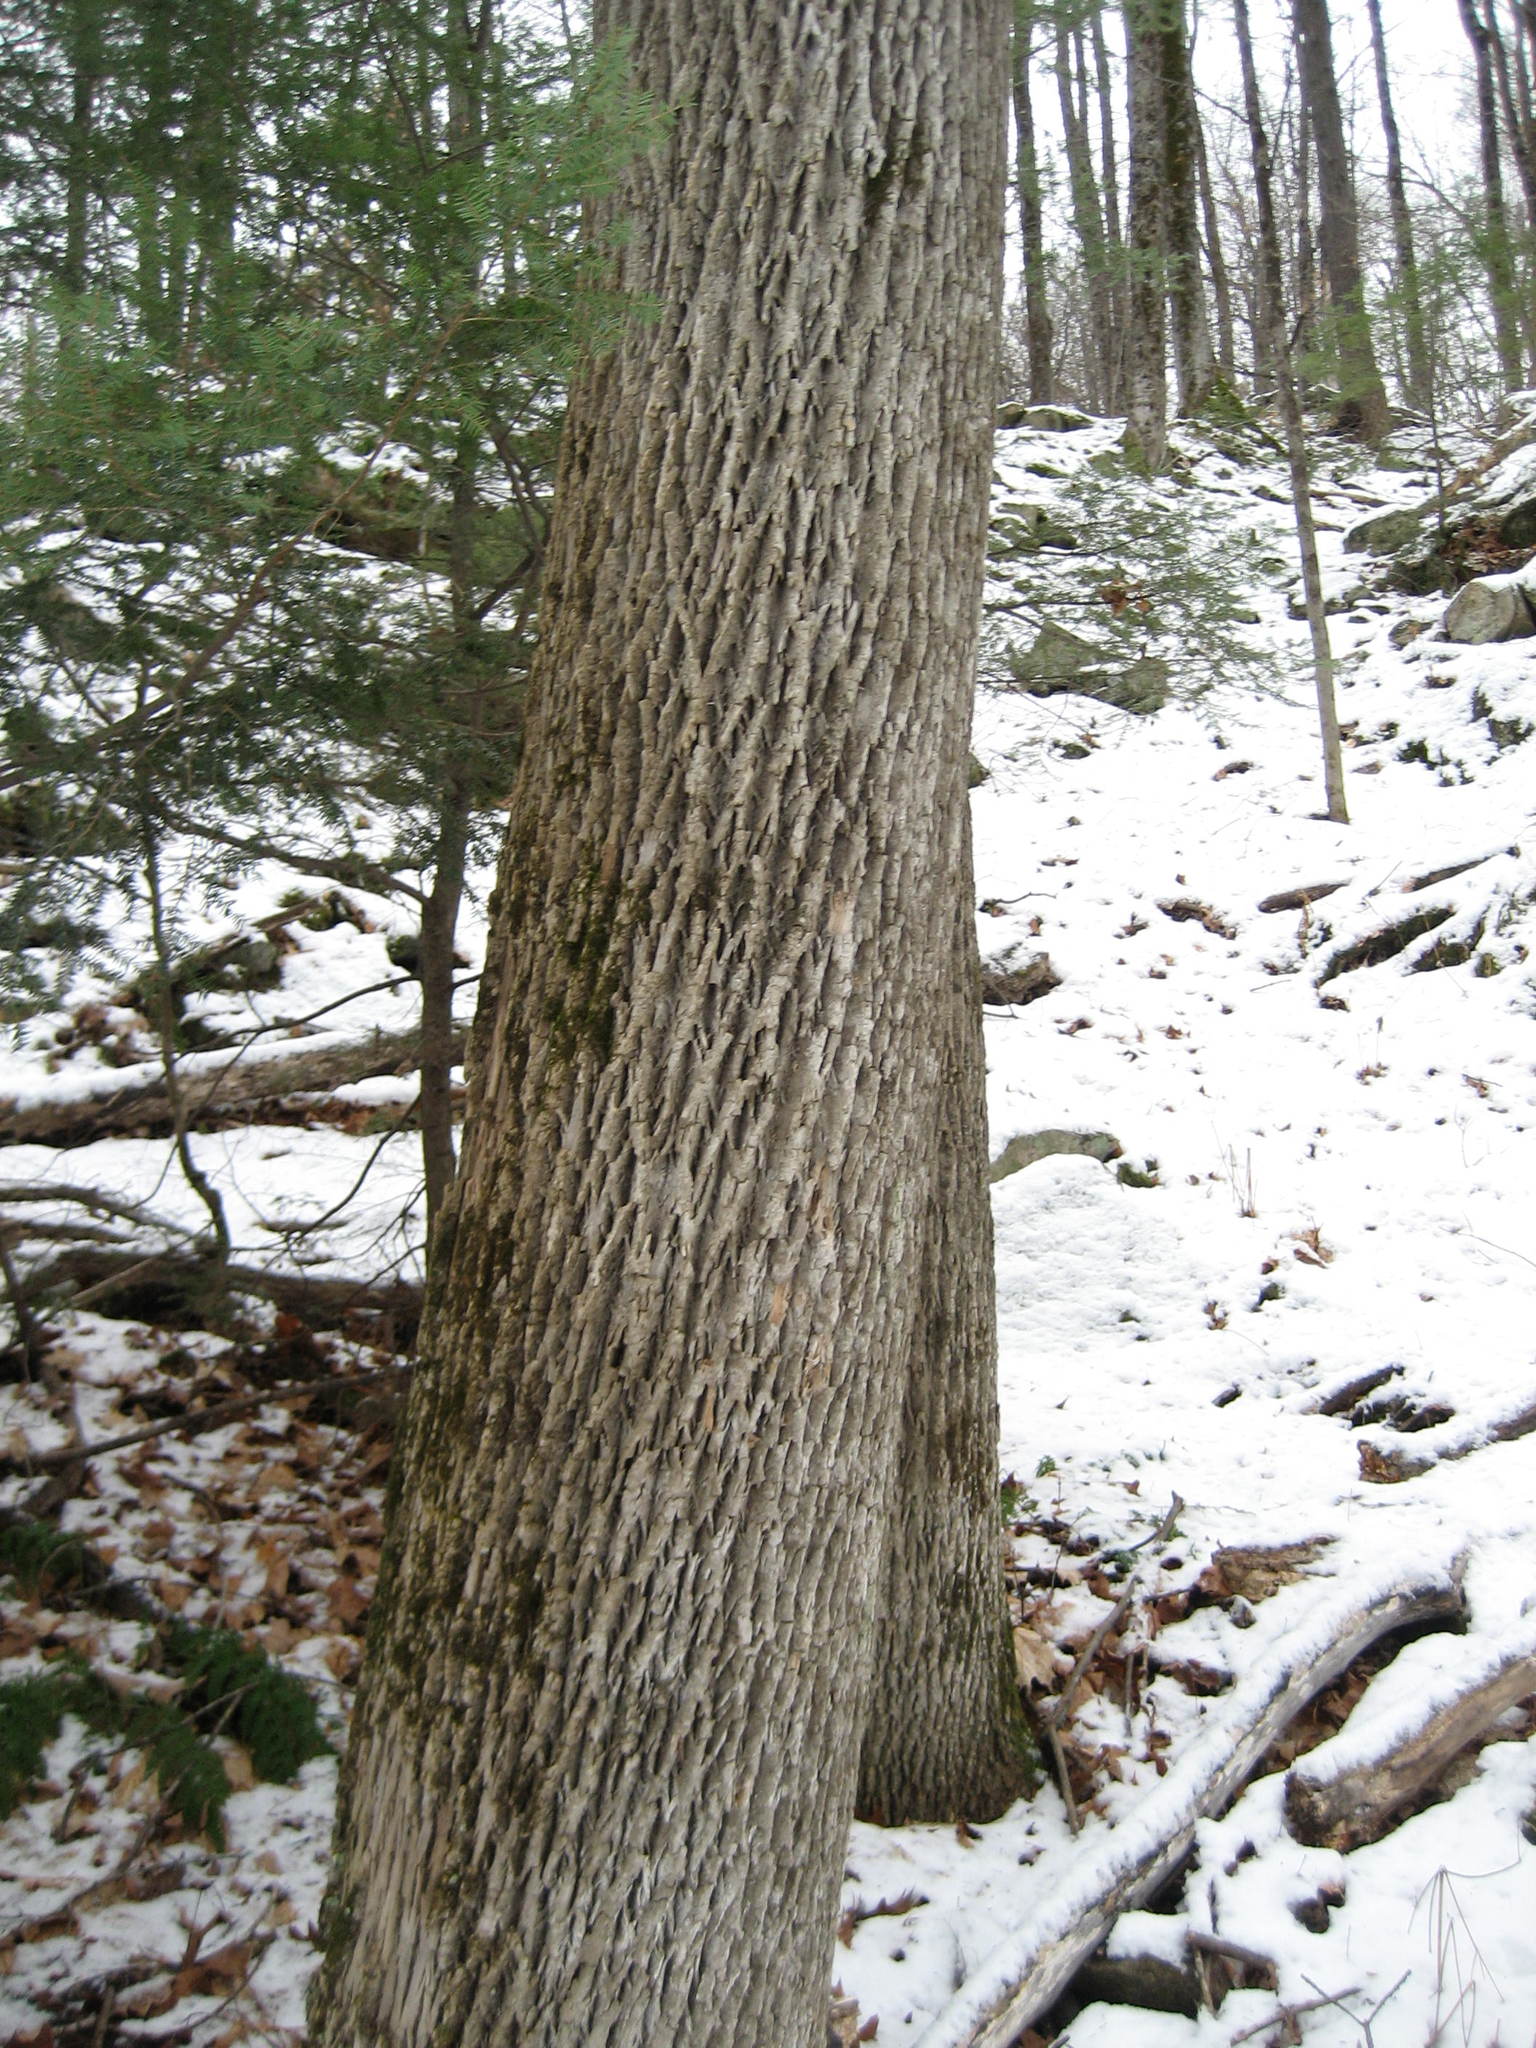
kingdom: Plantae
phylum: Tracheophyta
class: Magnoliopsida
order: Lamiales
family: Oleaceae
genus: Fraxinus
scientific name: Fraxinus americana
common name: White ash
